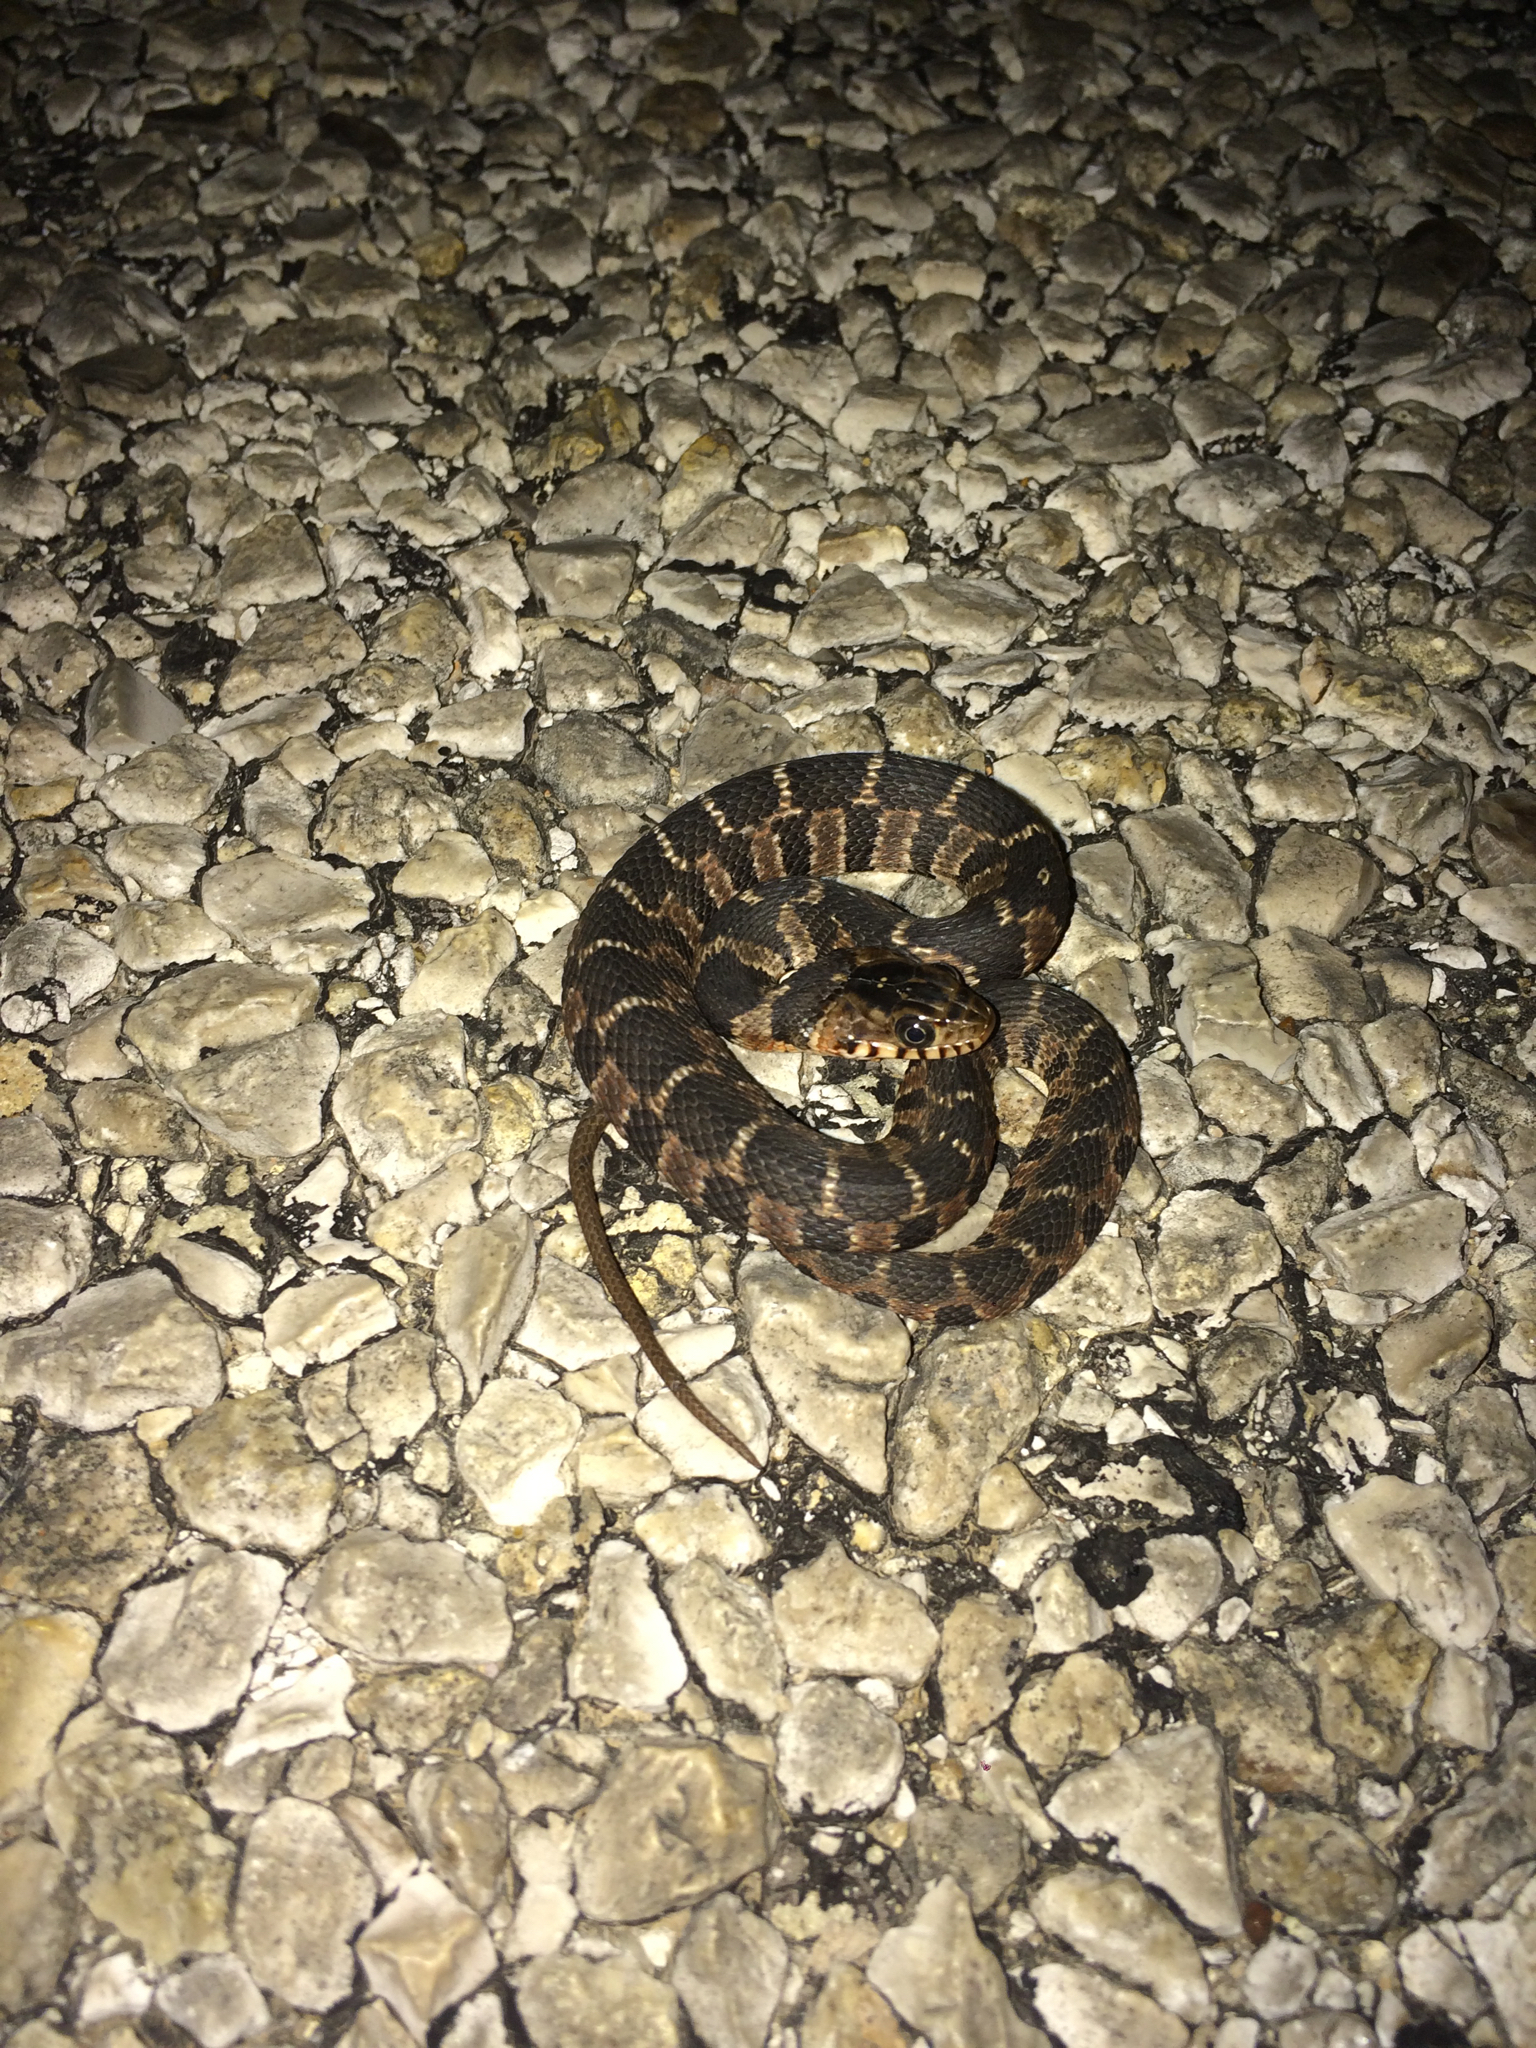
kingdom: Animalia
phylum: Chordata
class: Squamata
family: Colubridae
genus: Nerodia
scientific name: Nerodia erythrogaster
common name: Plainbelly water snake
